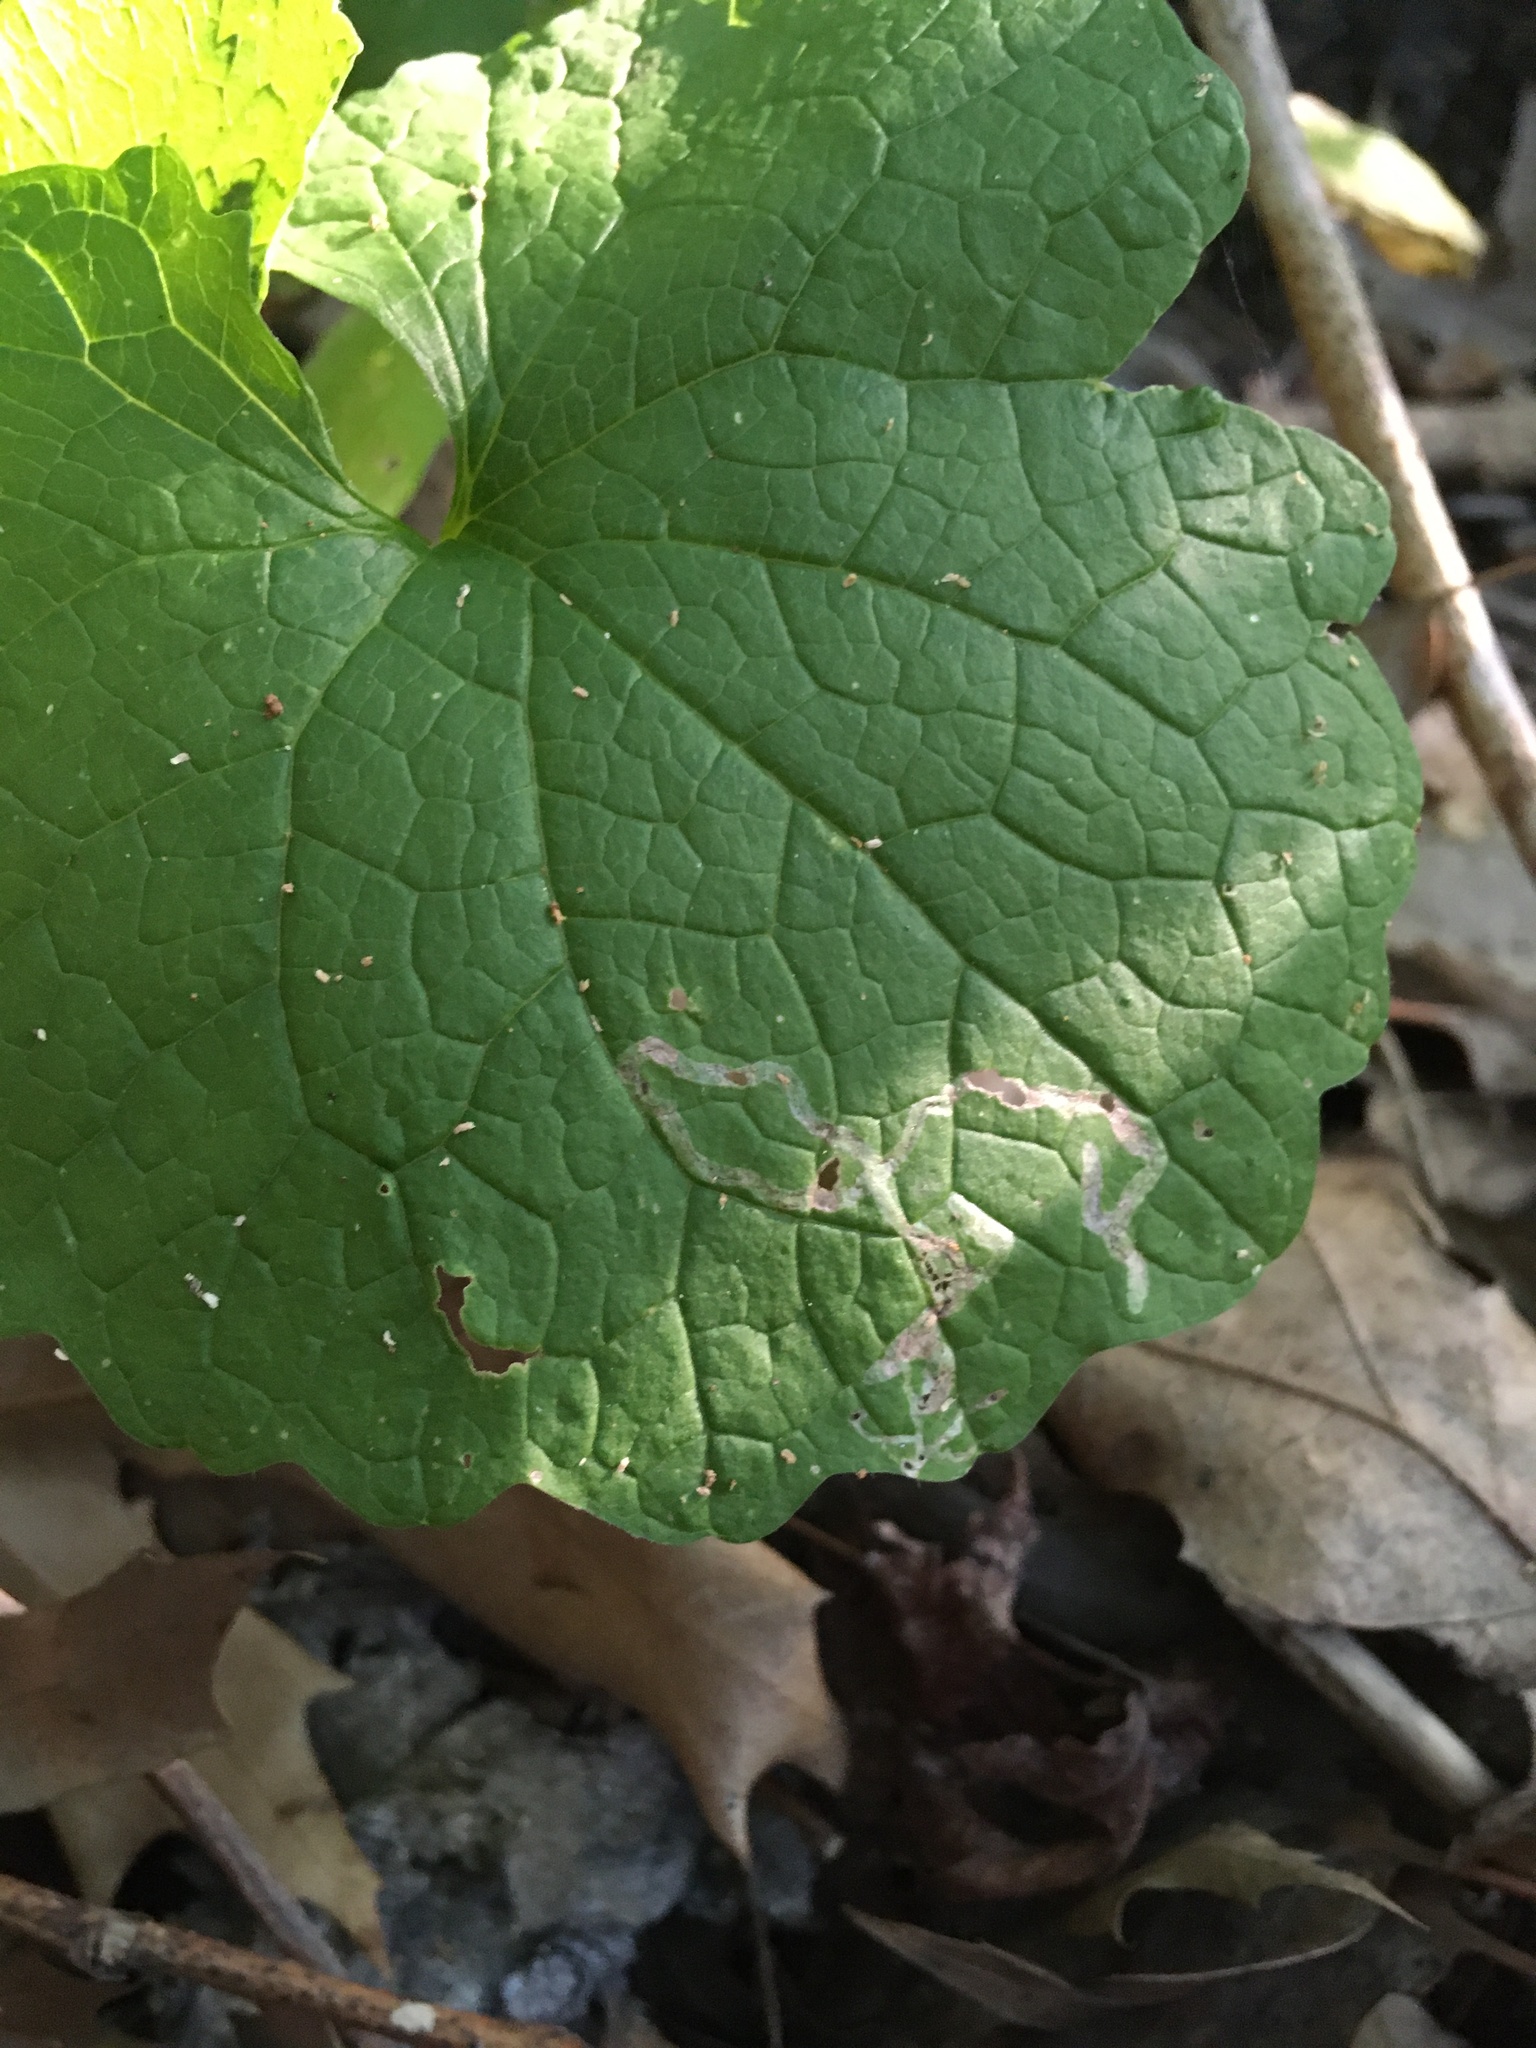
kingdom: Animalia
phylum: Arthropoda
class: Insecta
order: Diptera
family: Agromyzidae
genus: Liriomyza
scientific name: Liriomyza brassicae
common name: Serpentine leaf miner
